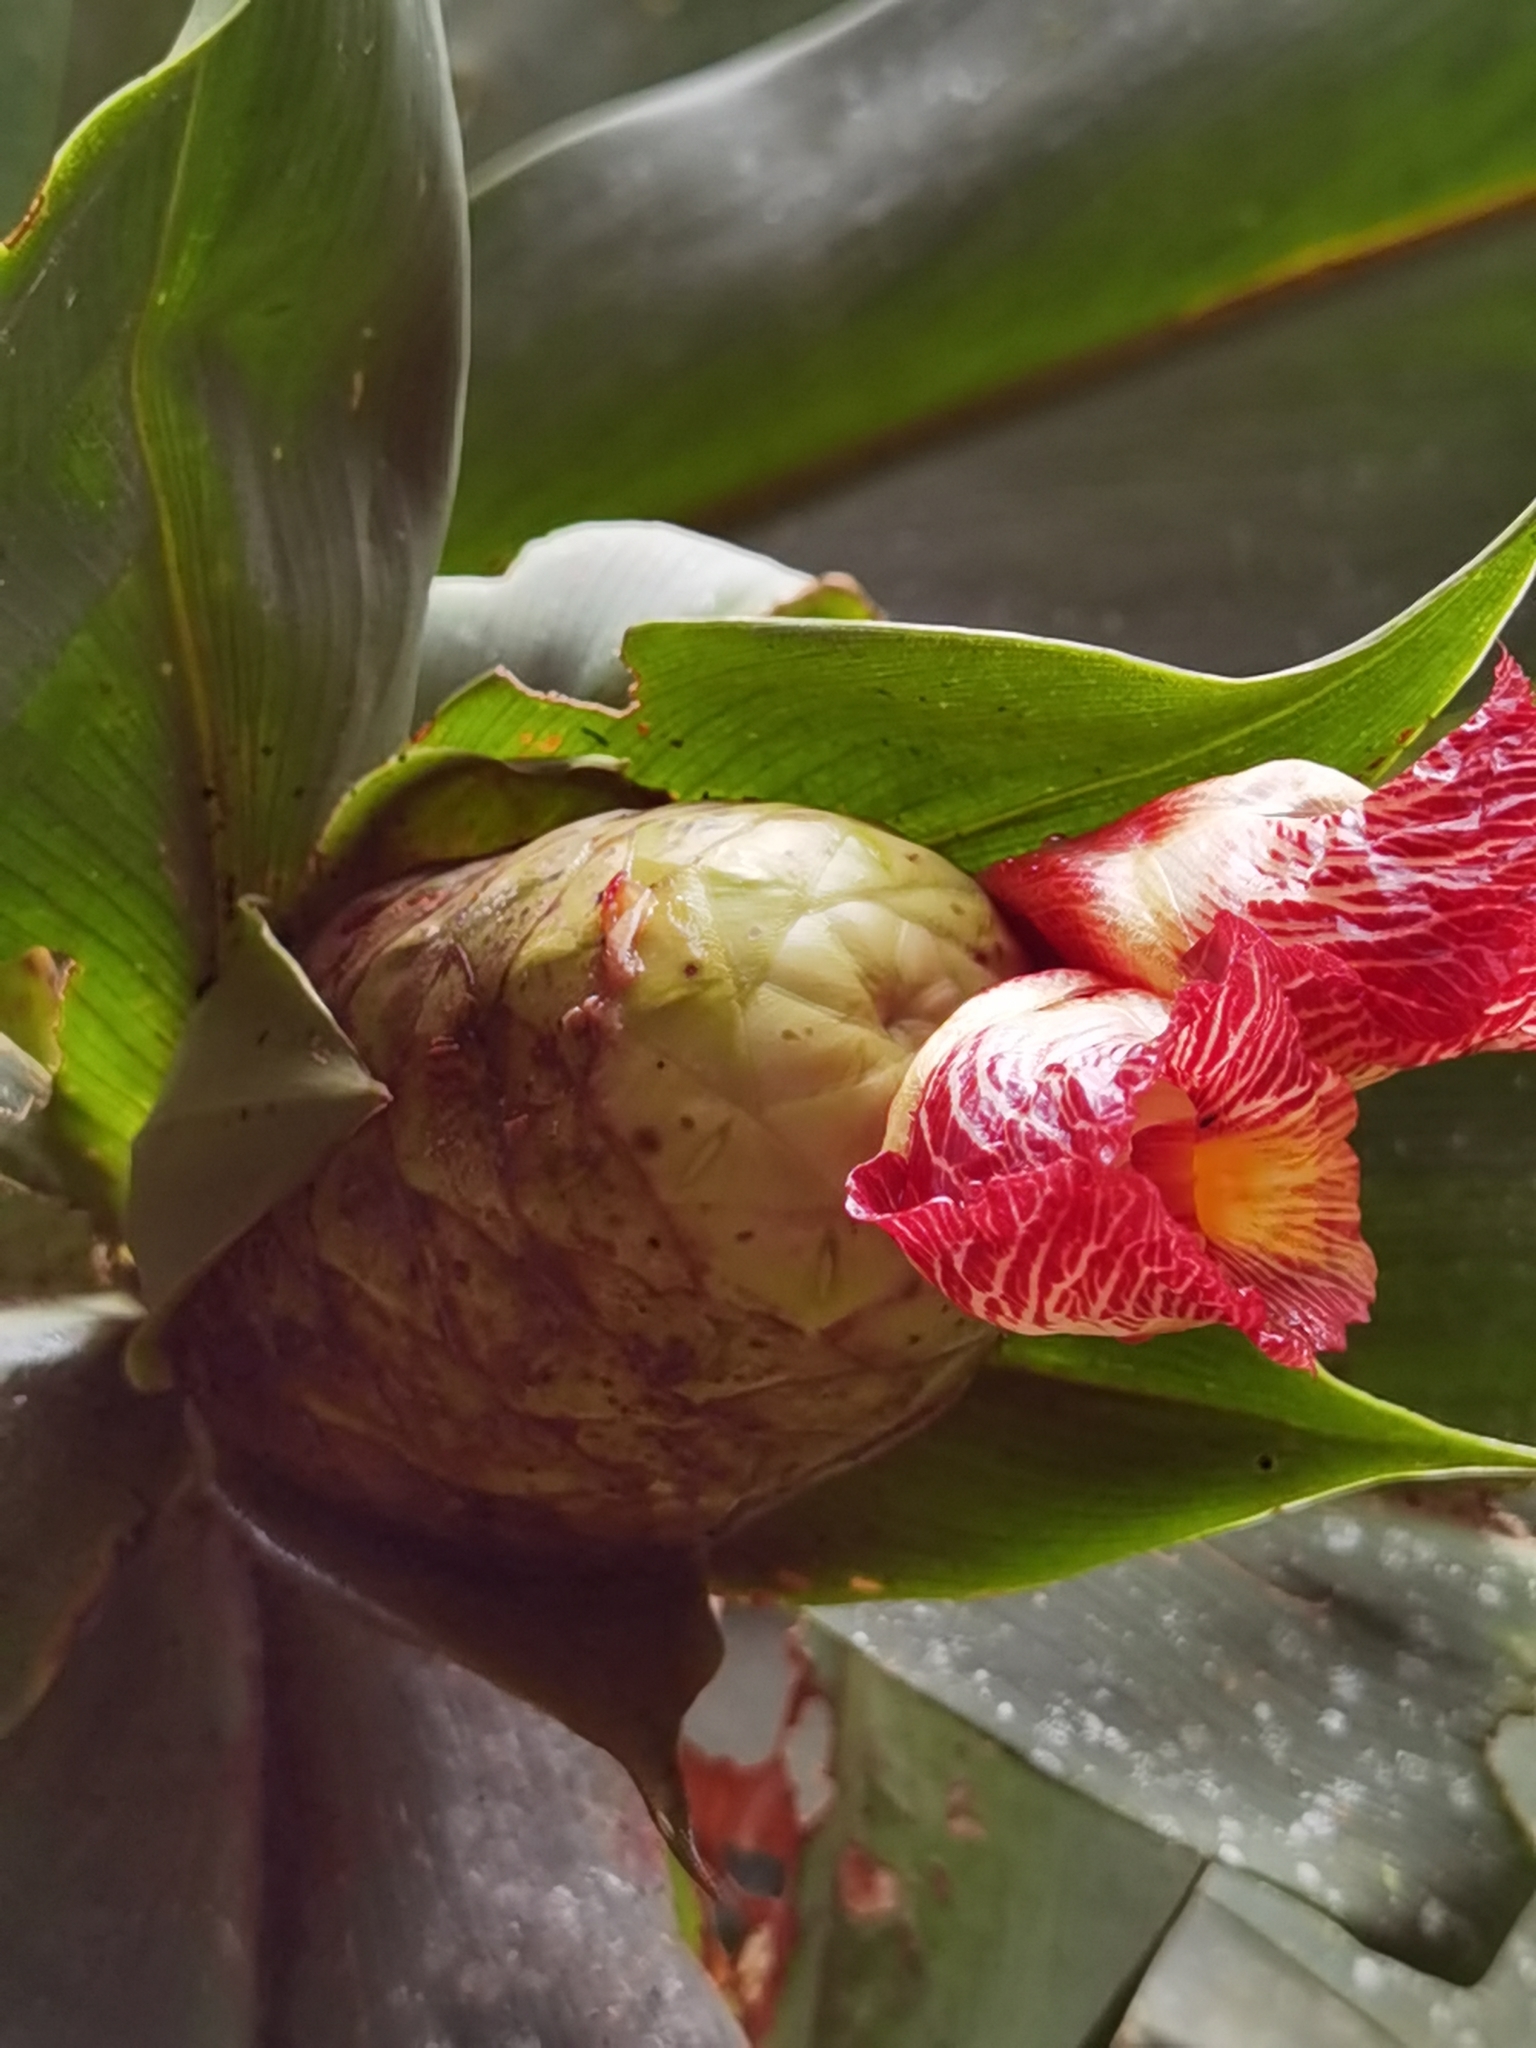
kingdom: Plantae
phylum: Tracheophyta
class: Liliopsida
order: Zingiberales
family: Costaceae
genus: Costus
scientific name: Costus laevis
